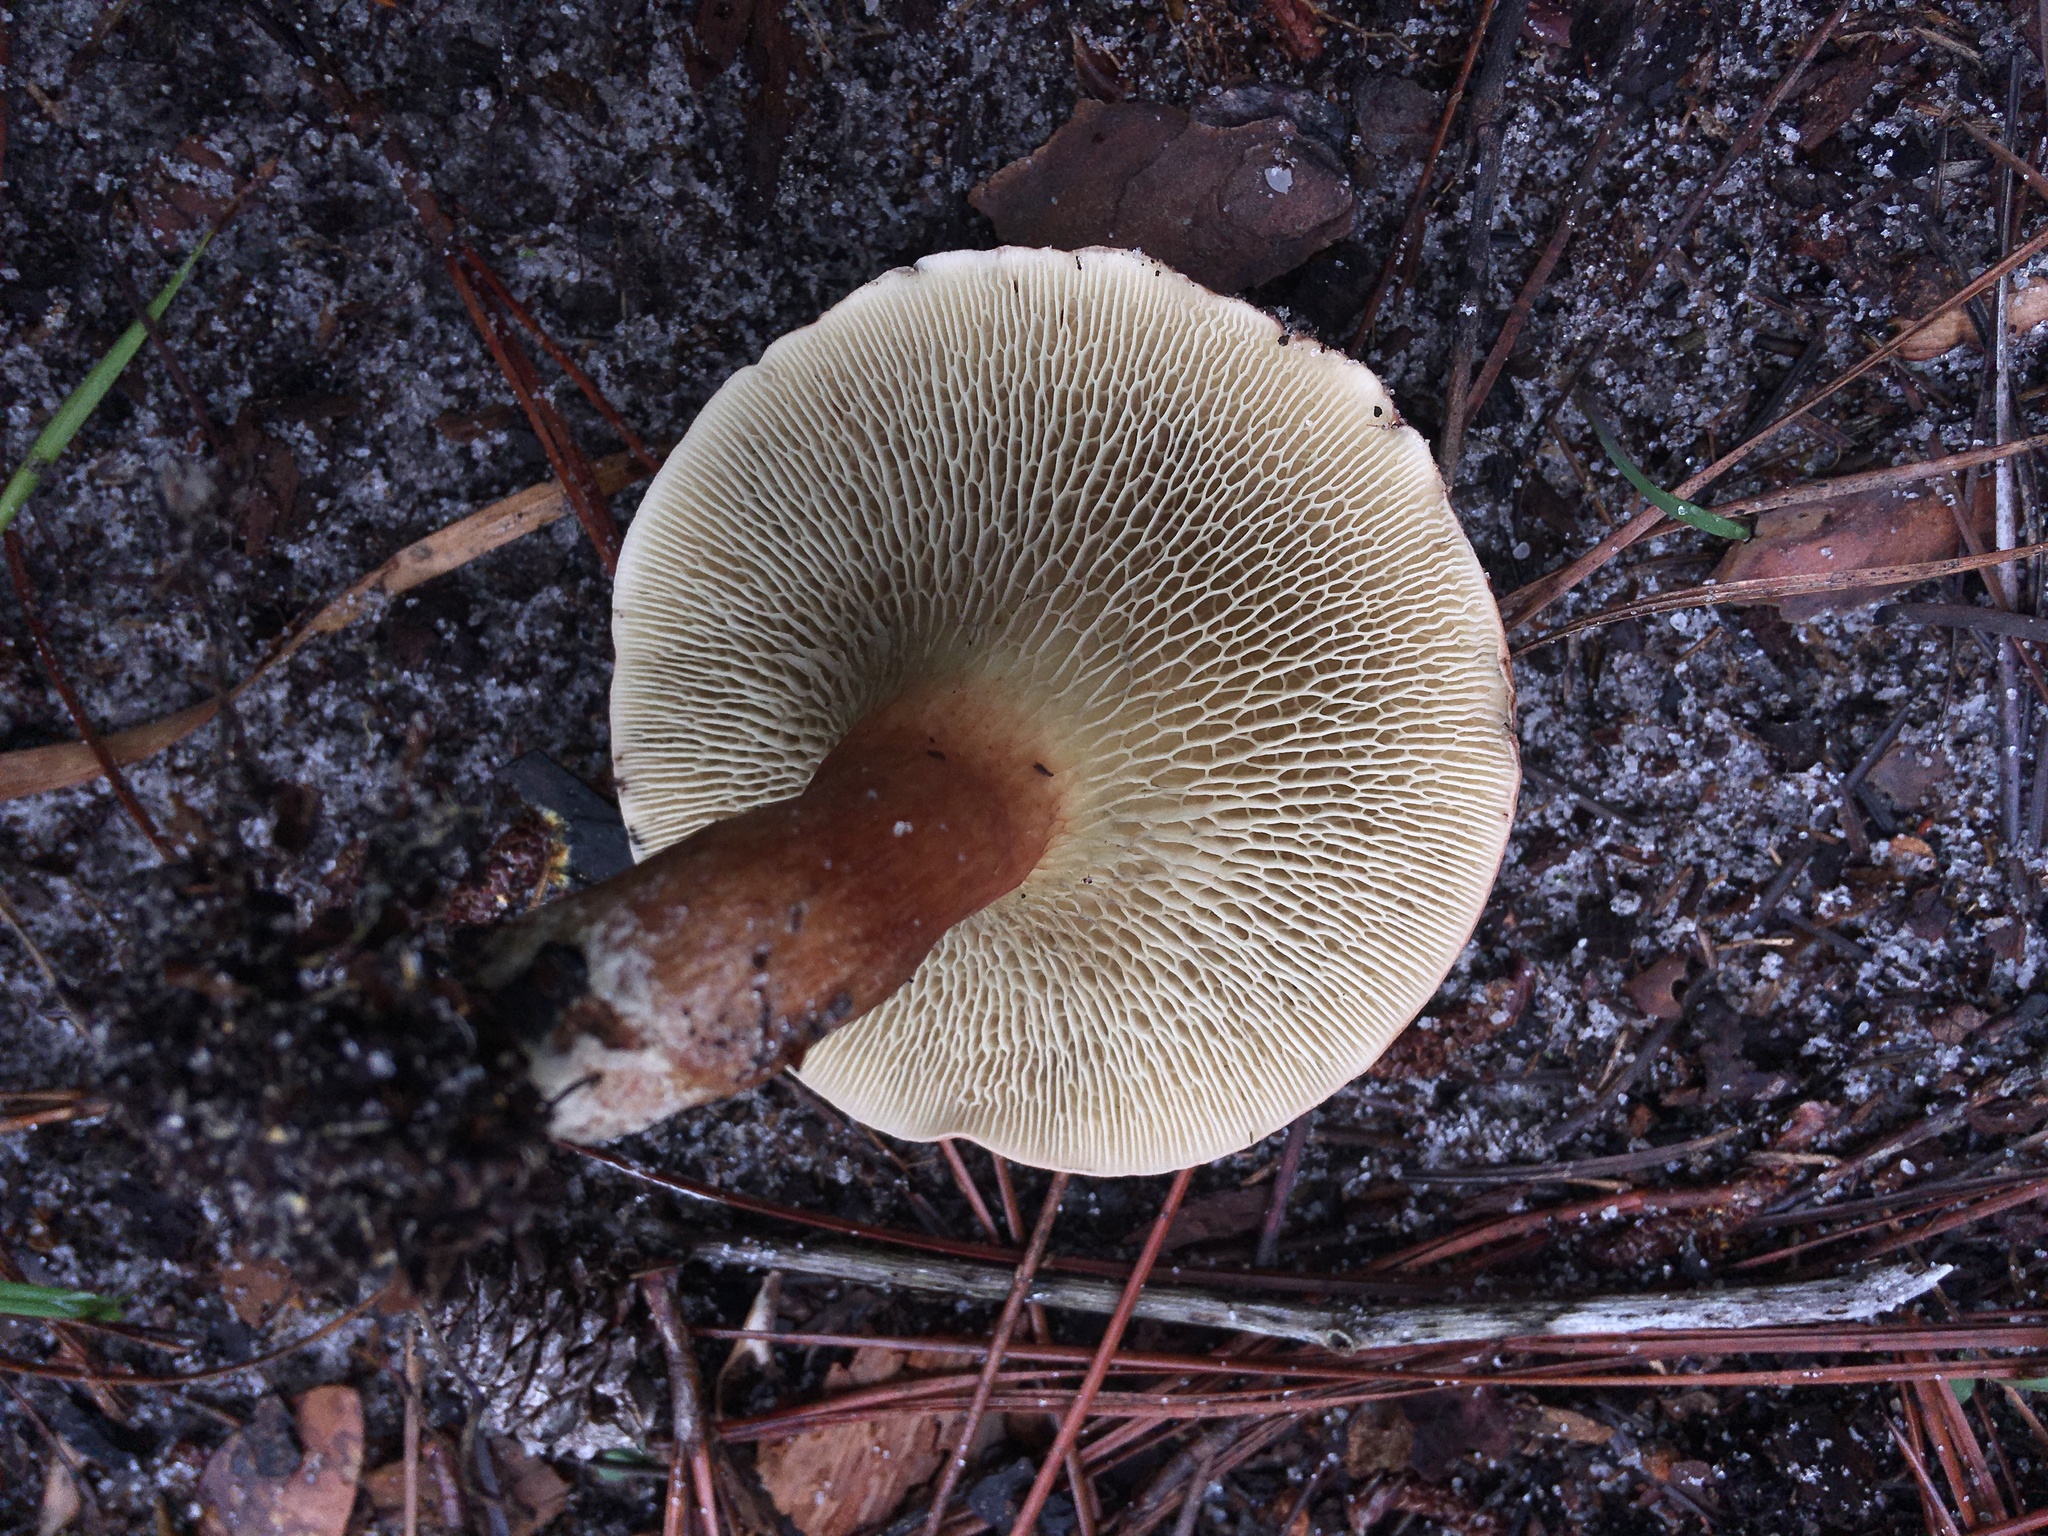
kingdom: Fungi
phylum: Basidiomycota
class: Agaricomycetes
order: Boletales
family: Boletaceae
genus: Phylloporopsis
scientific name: Phylloporopsis boletinoides
